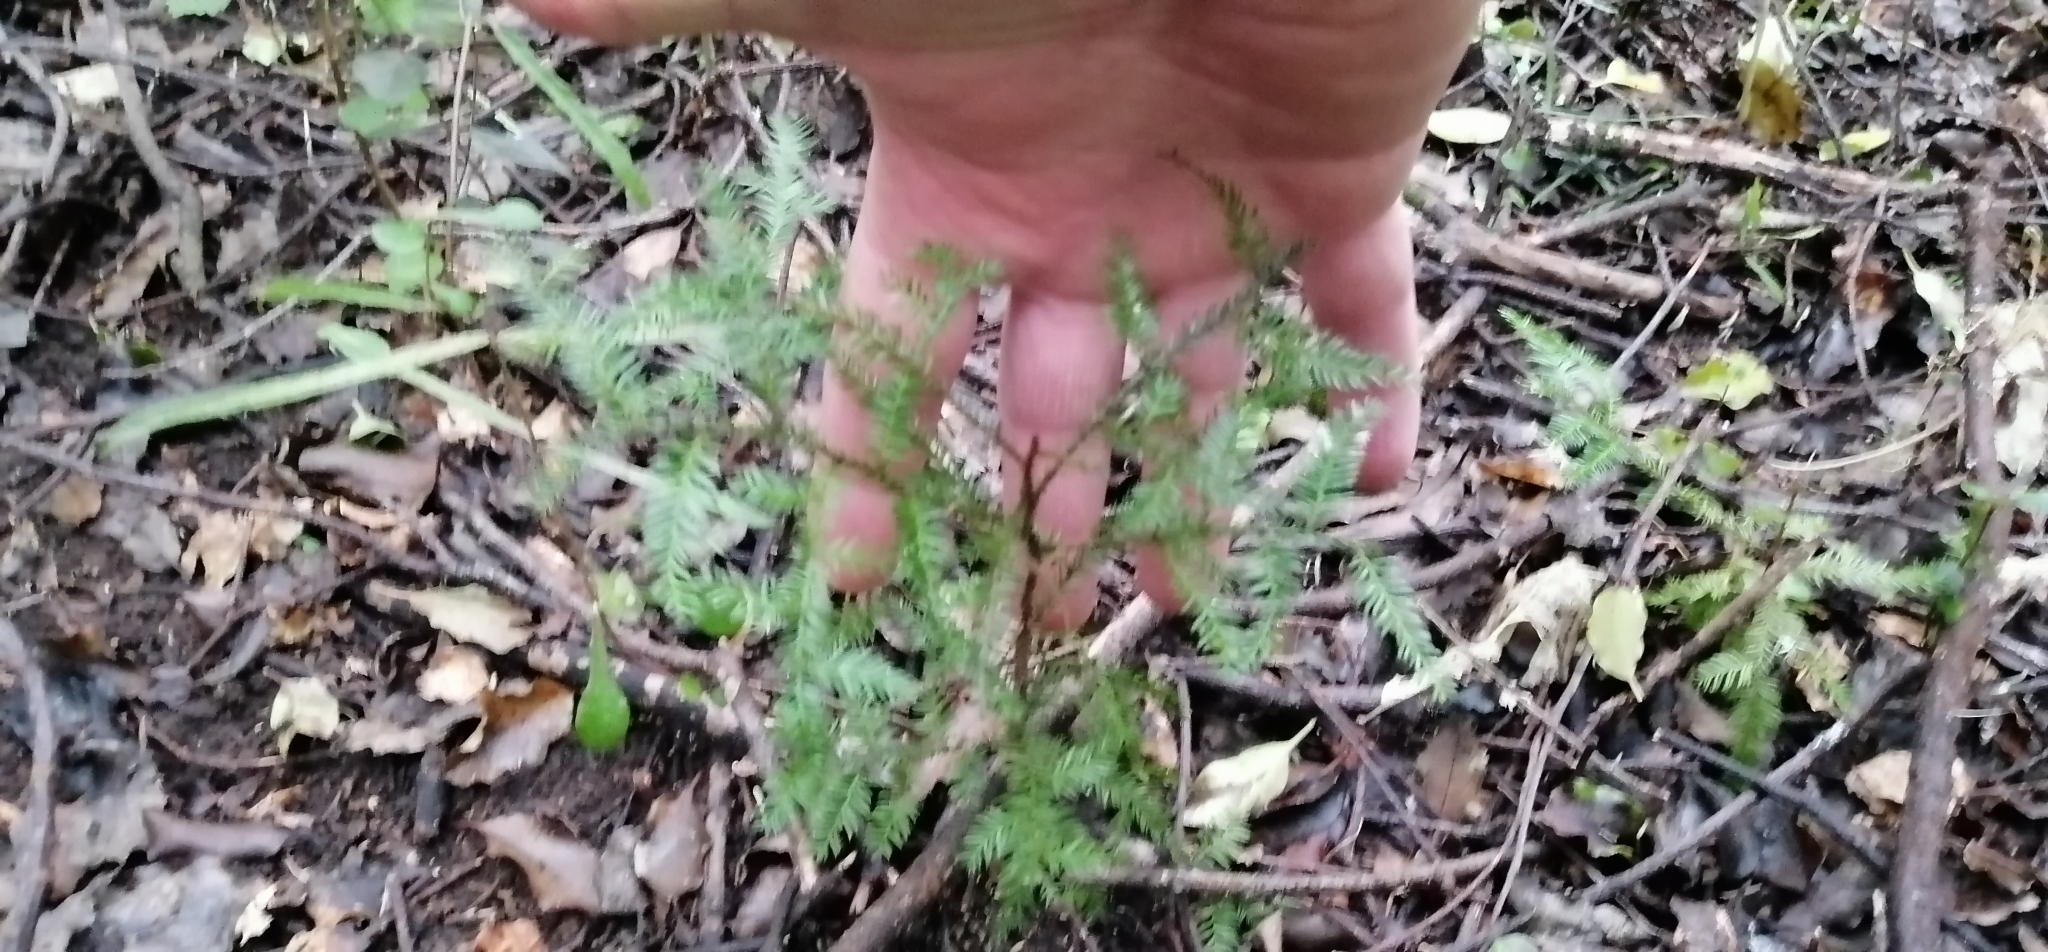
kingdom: Plantae
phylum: Tracheophyta
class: Pinopsida
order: Pinales
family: Podocarpaceae
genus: Dacrycarpus
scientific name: Dacrycarpus dacrydioides
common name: White pine
